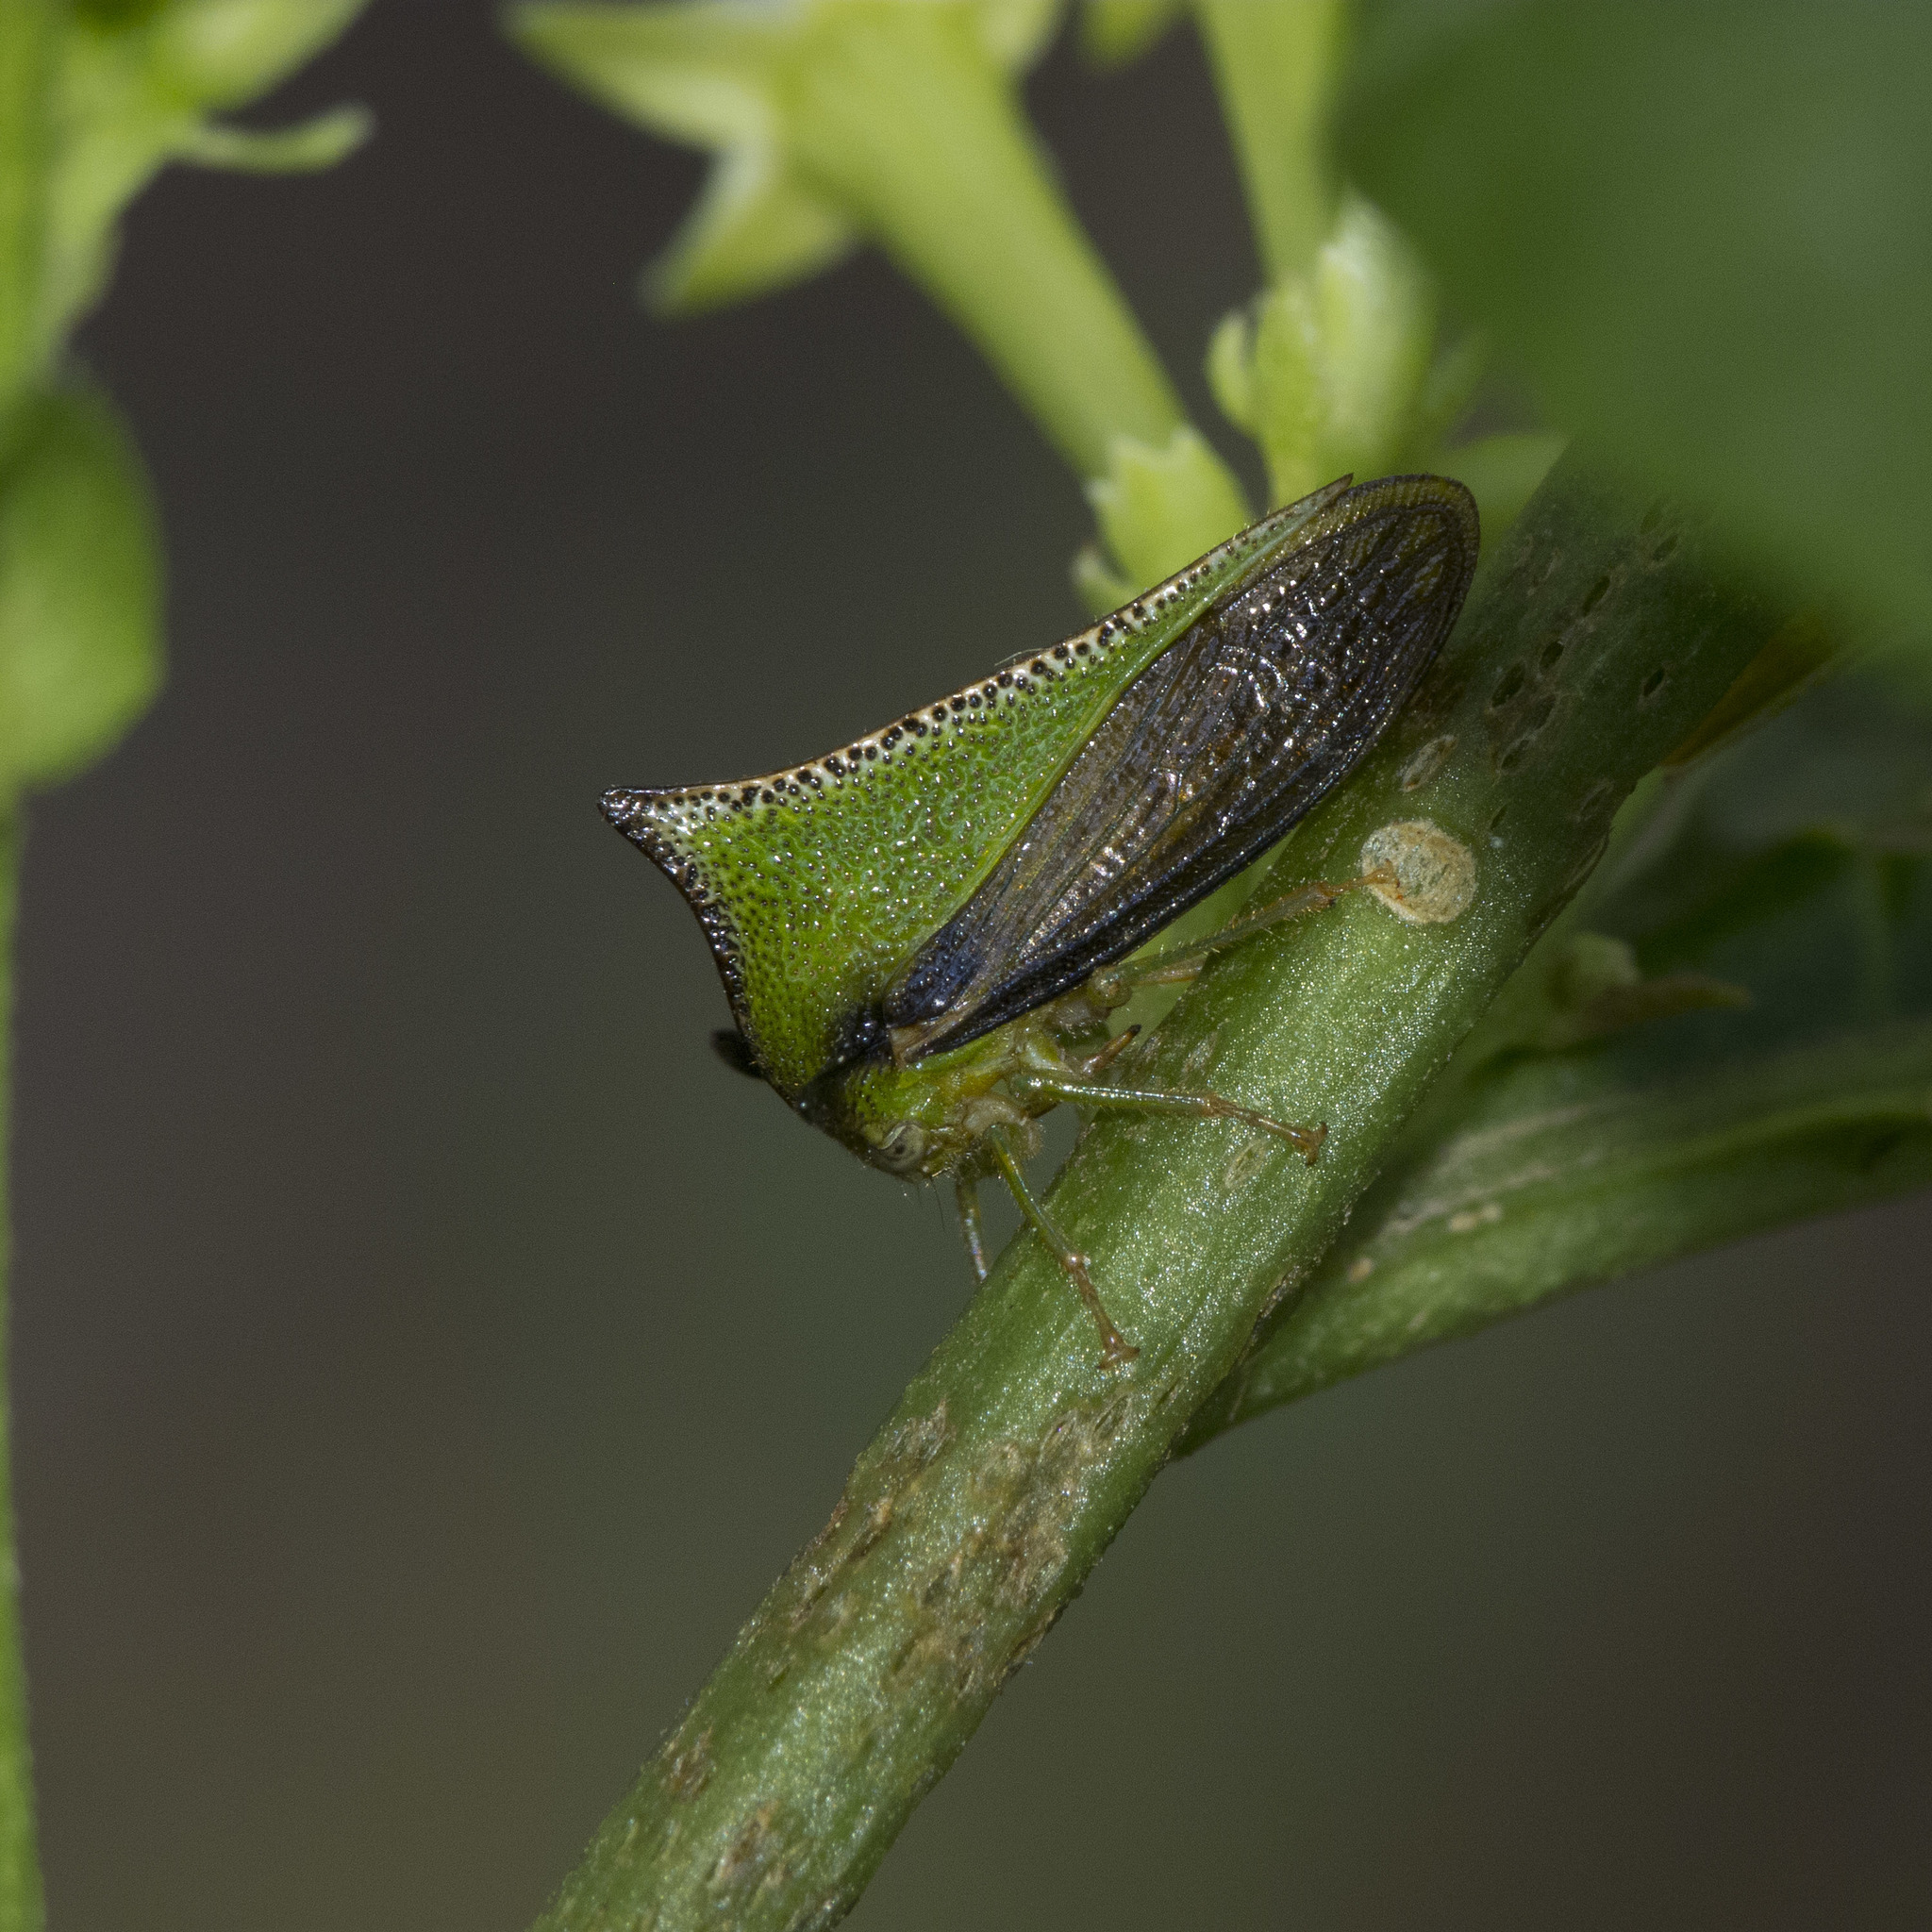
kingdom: Animalia
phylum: Arthropoda
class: Insecta
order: Hemiptera
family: Membracidae
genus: Alchisme
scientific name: Alchisme ustulata
